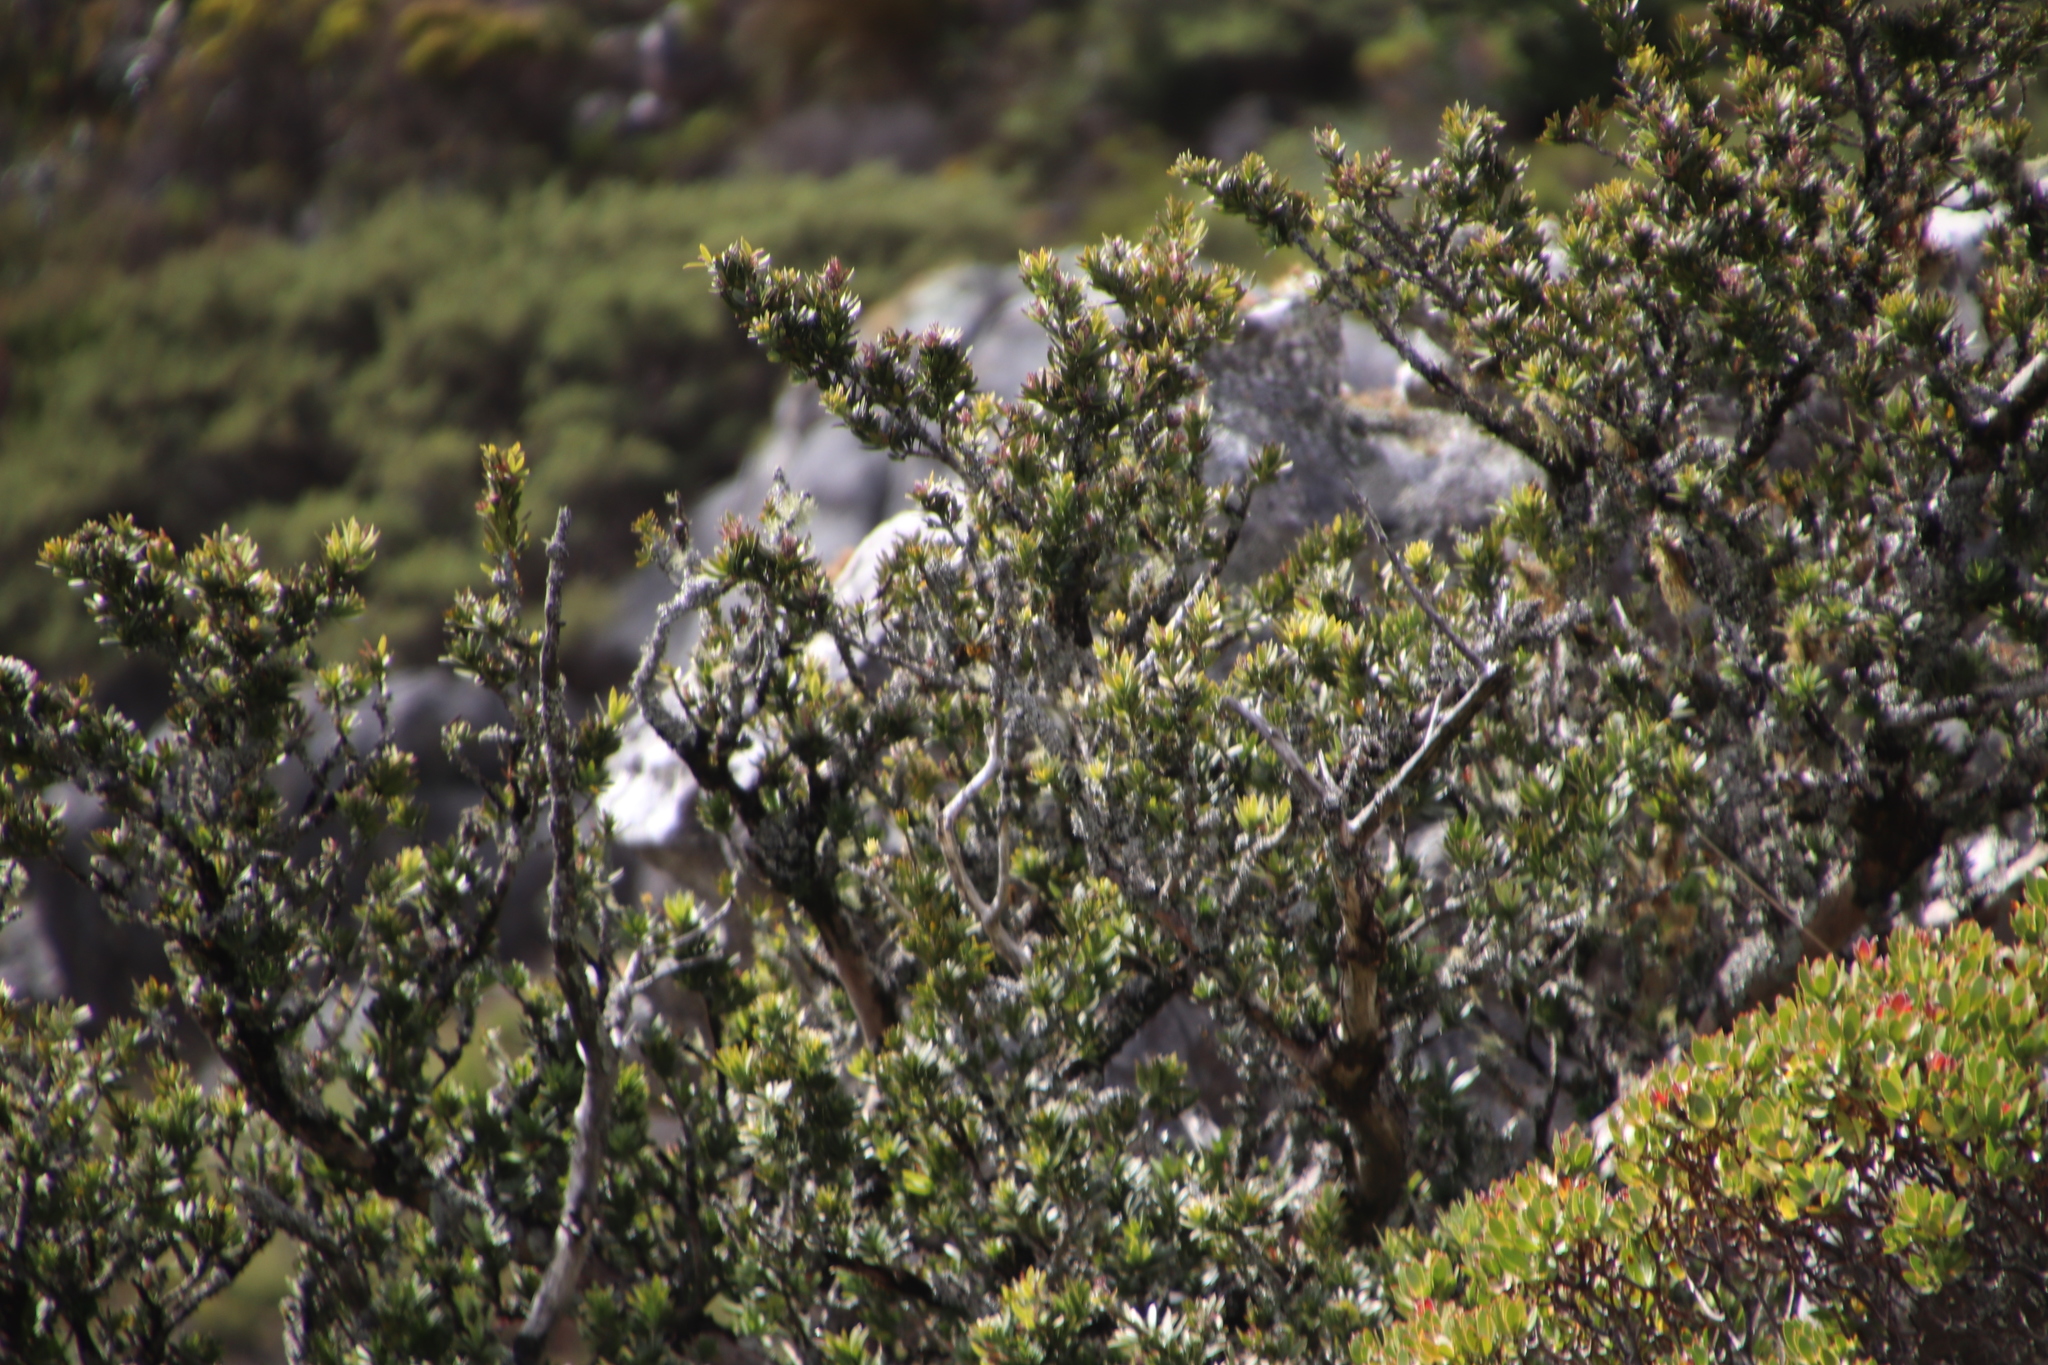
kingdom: Plantae
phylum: Tracheophyta
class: Pinopsida
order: Pinales
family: Podocarpaceae
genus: Podocarpus
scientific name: Podocarpus latifolius
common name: True yellowwood
